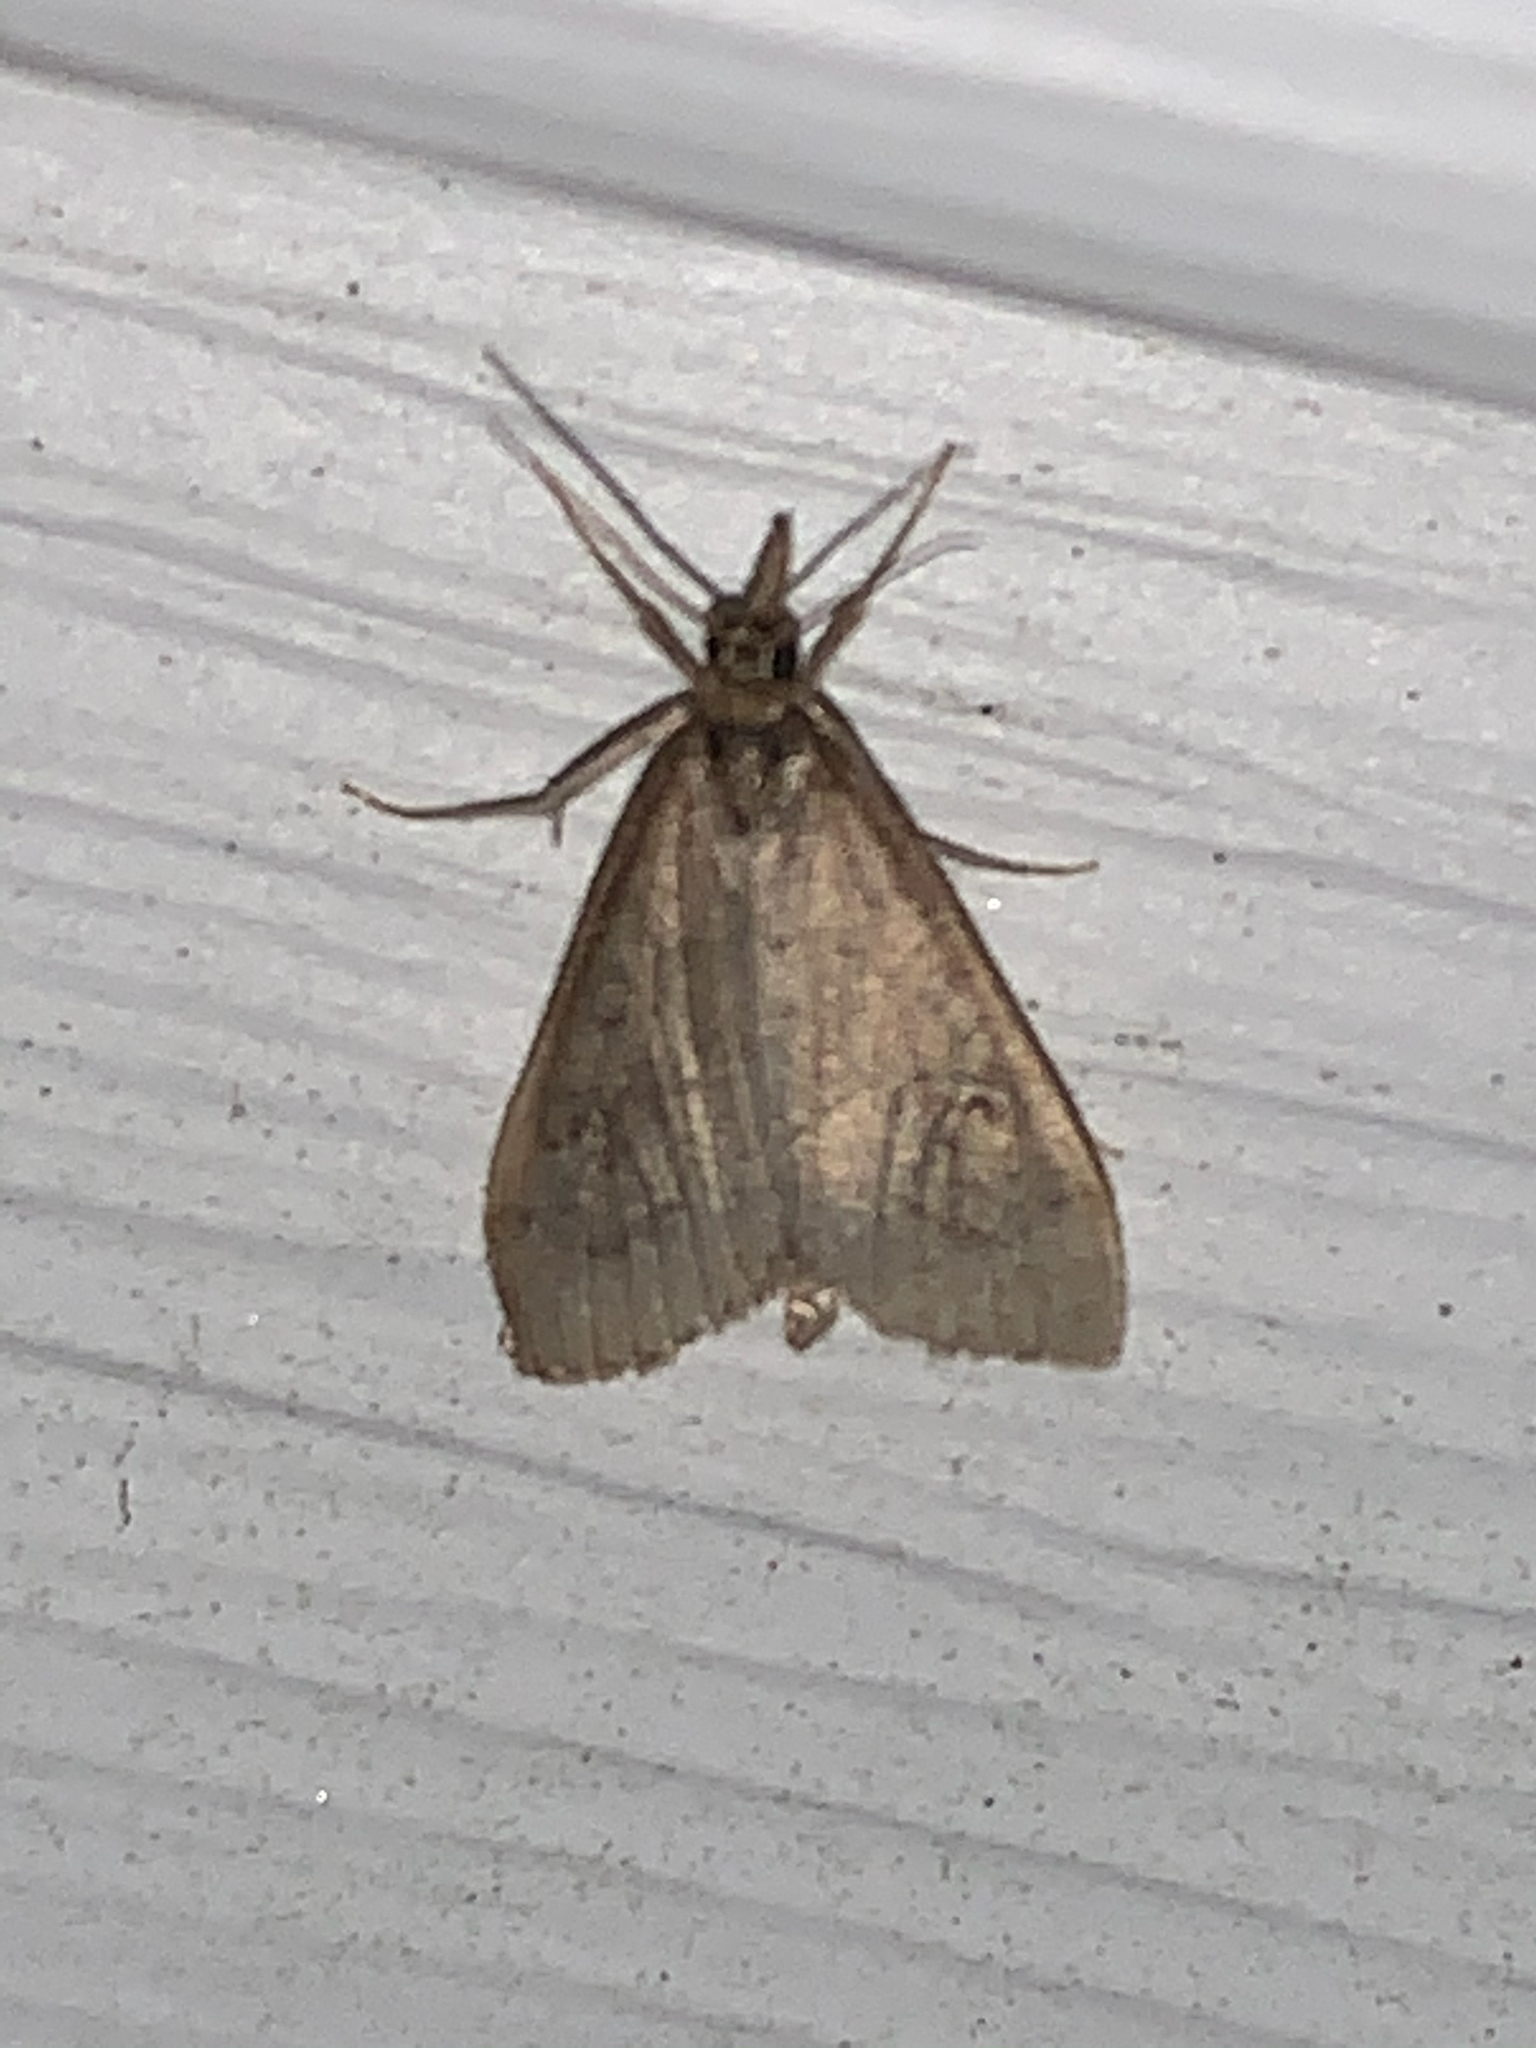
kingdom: Animalia
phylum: Arthropoda
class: Insecta
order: Lepidoptera
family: Crambidae
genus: Udea
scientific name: Udea rubigalis
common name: Celery leaftier moth
